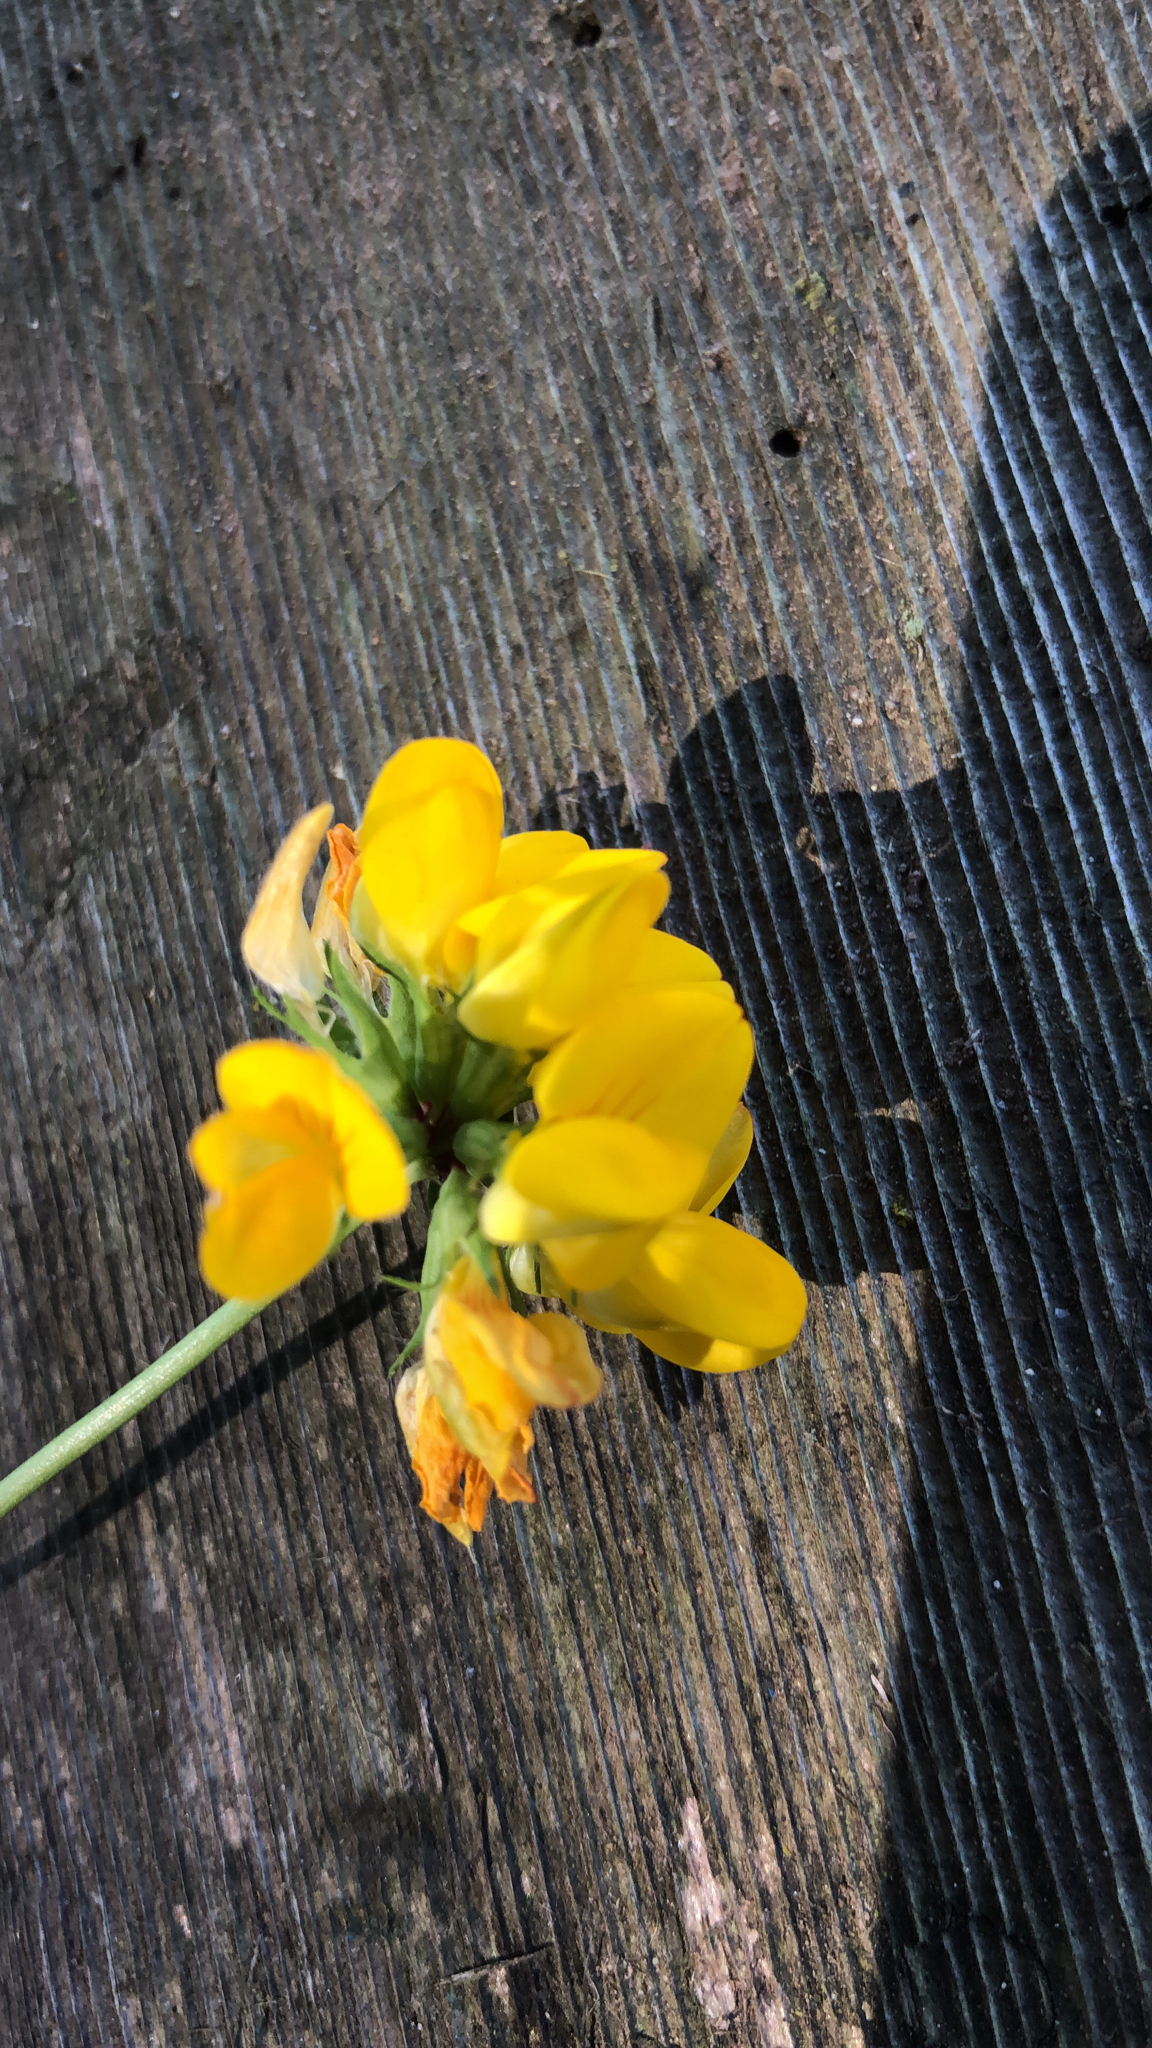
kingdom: Plantae
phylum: Tracheophyta
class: Magnoliopsida
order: Fabales
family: Fabaceae
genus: Lotus
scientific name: Lotus pedunculatus
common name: Greater birdsfoot-trefoil
